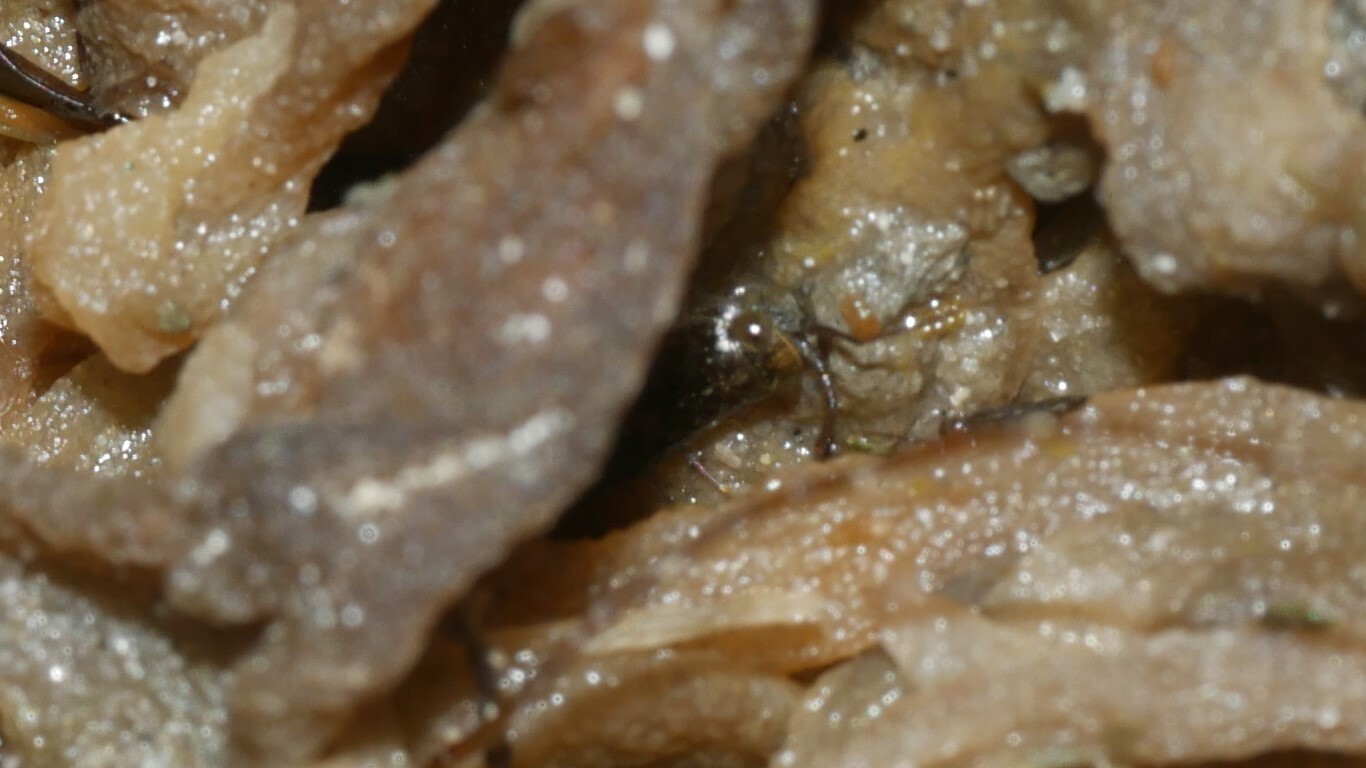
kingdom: Animalia
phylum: Arthropoda
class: Malacostraca
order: Isopoda
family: Ligiidae
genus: Ligia
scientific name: Ligia exotica
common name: Wharf roach
